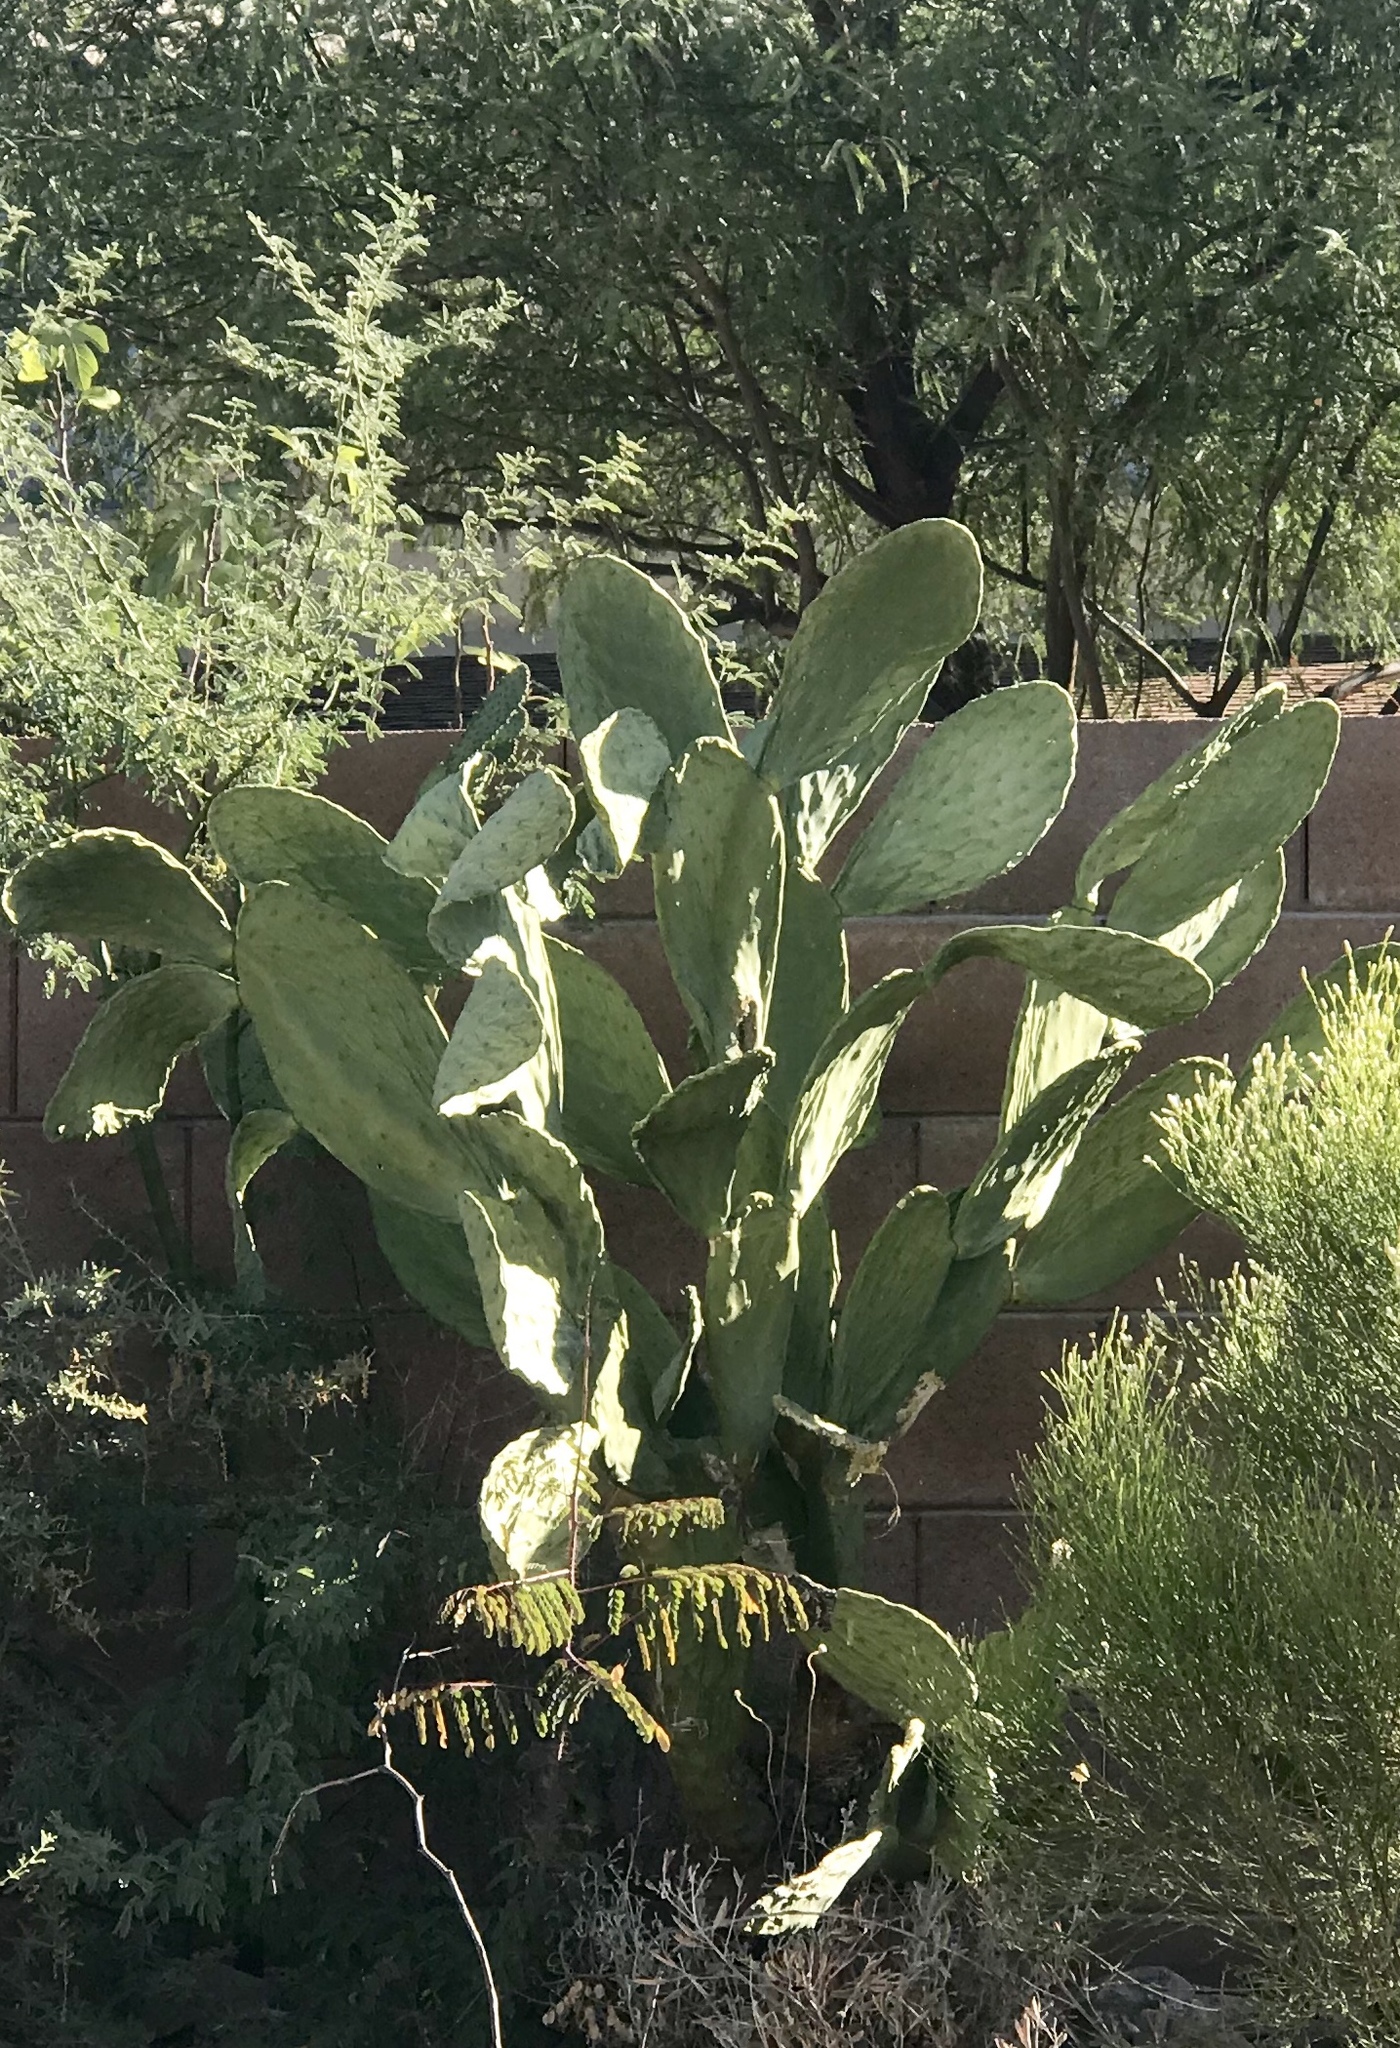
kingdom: Plantae
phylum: Tracheophyta
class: Magnoliopsida
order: Caryophyllales
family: Cactaceae
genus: Opuntia
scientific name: Opuntia ficus-indica
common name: Barbary fig
